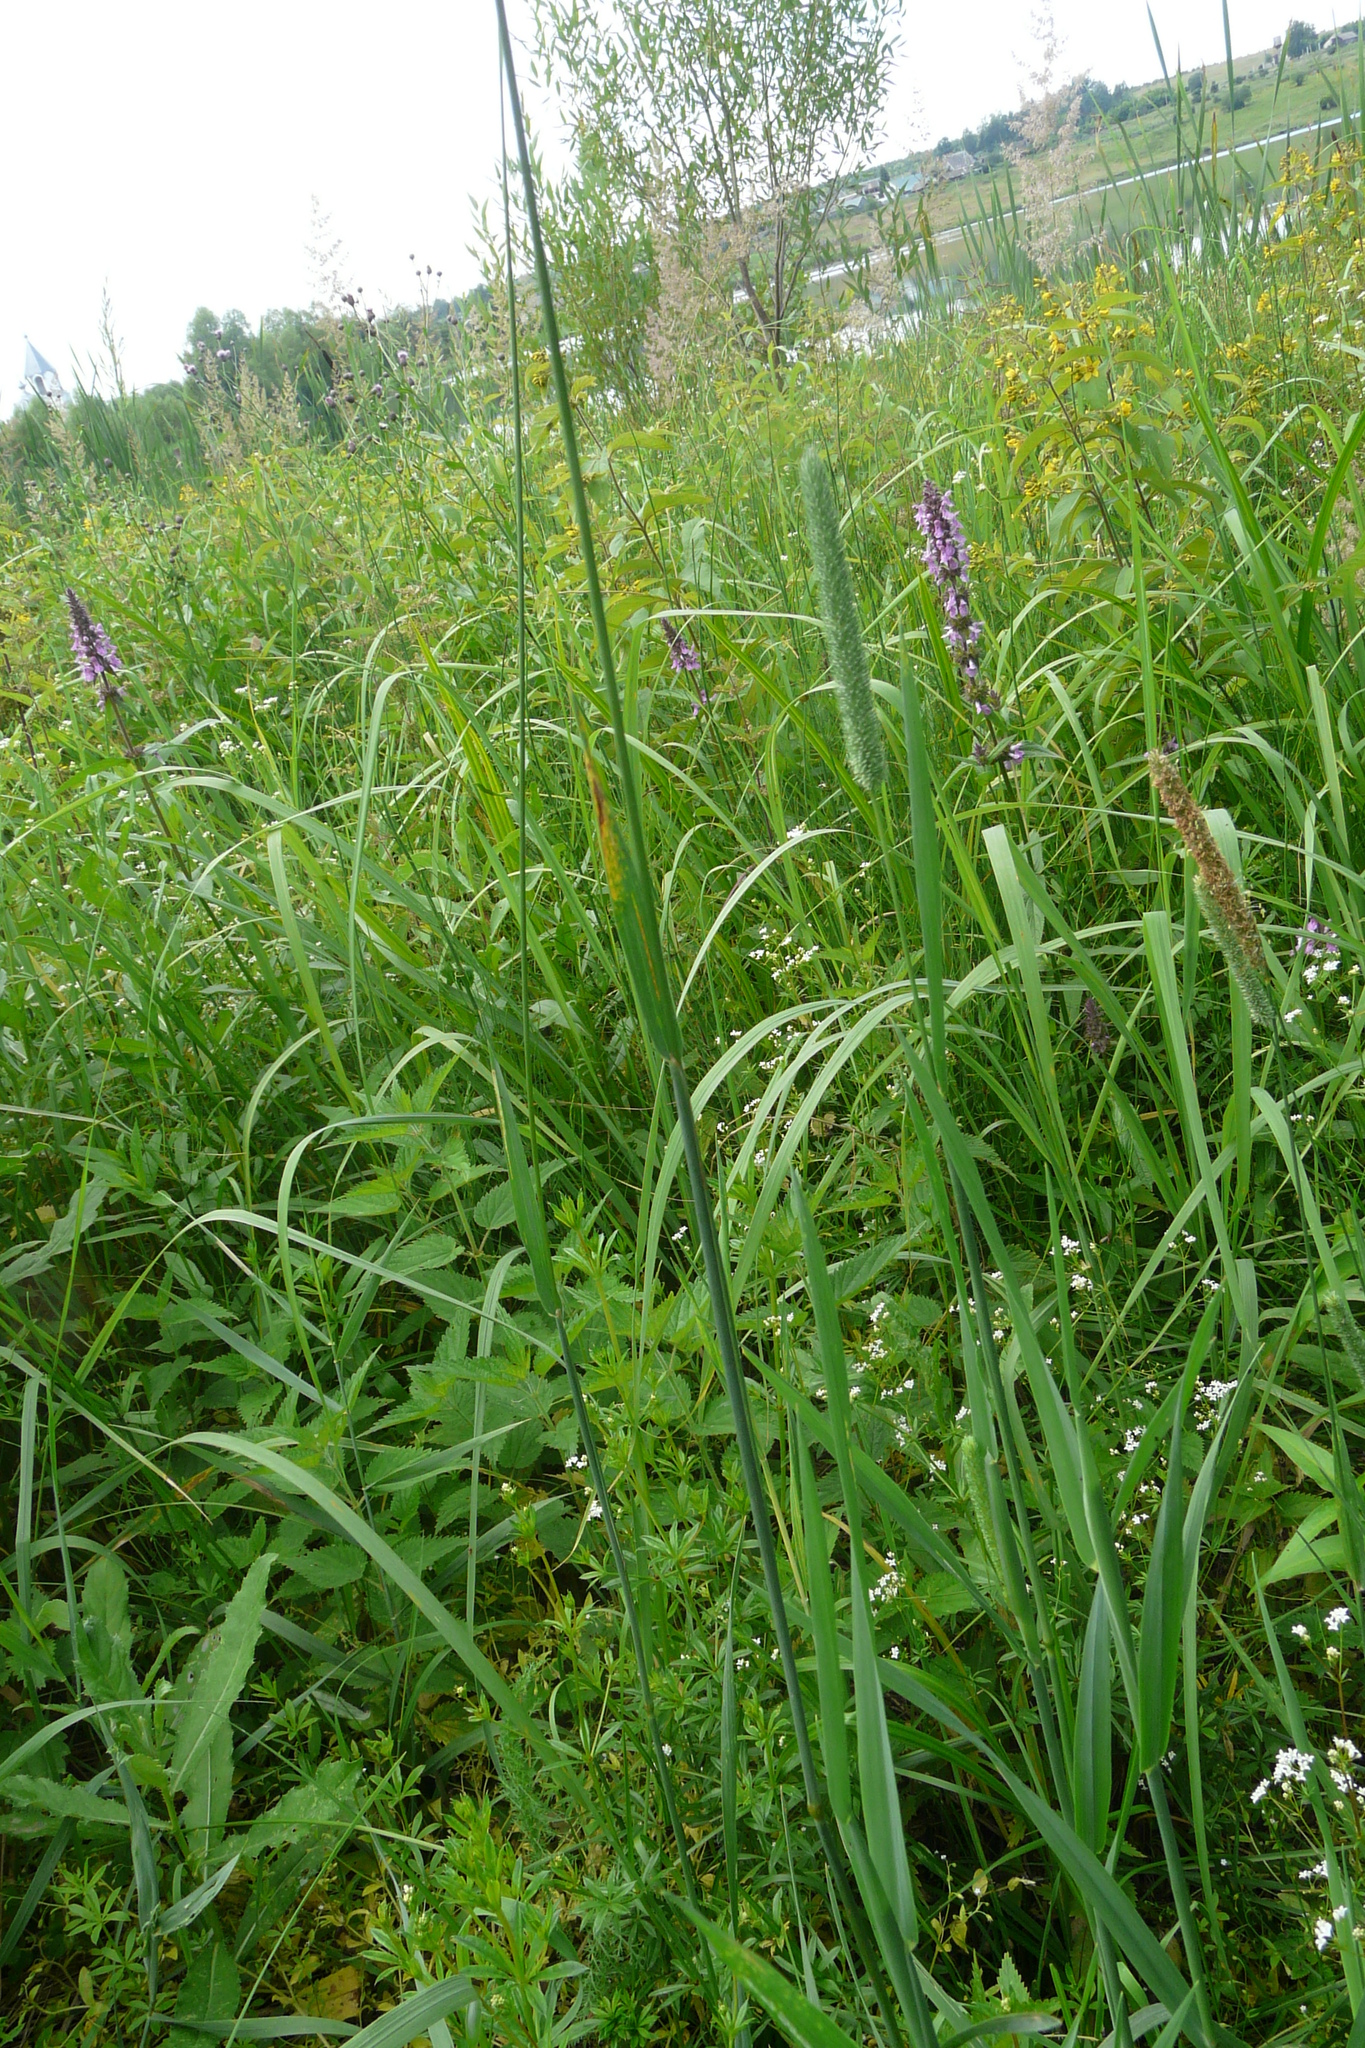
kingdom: Plantae
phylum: Tracheophyta
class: Liliopsida
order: Poales
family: Poaceae
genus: Phleum
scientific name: Phleum pratense
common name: Timothy grass
